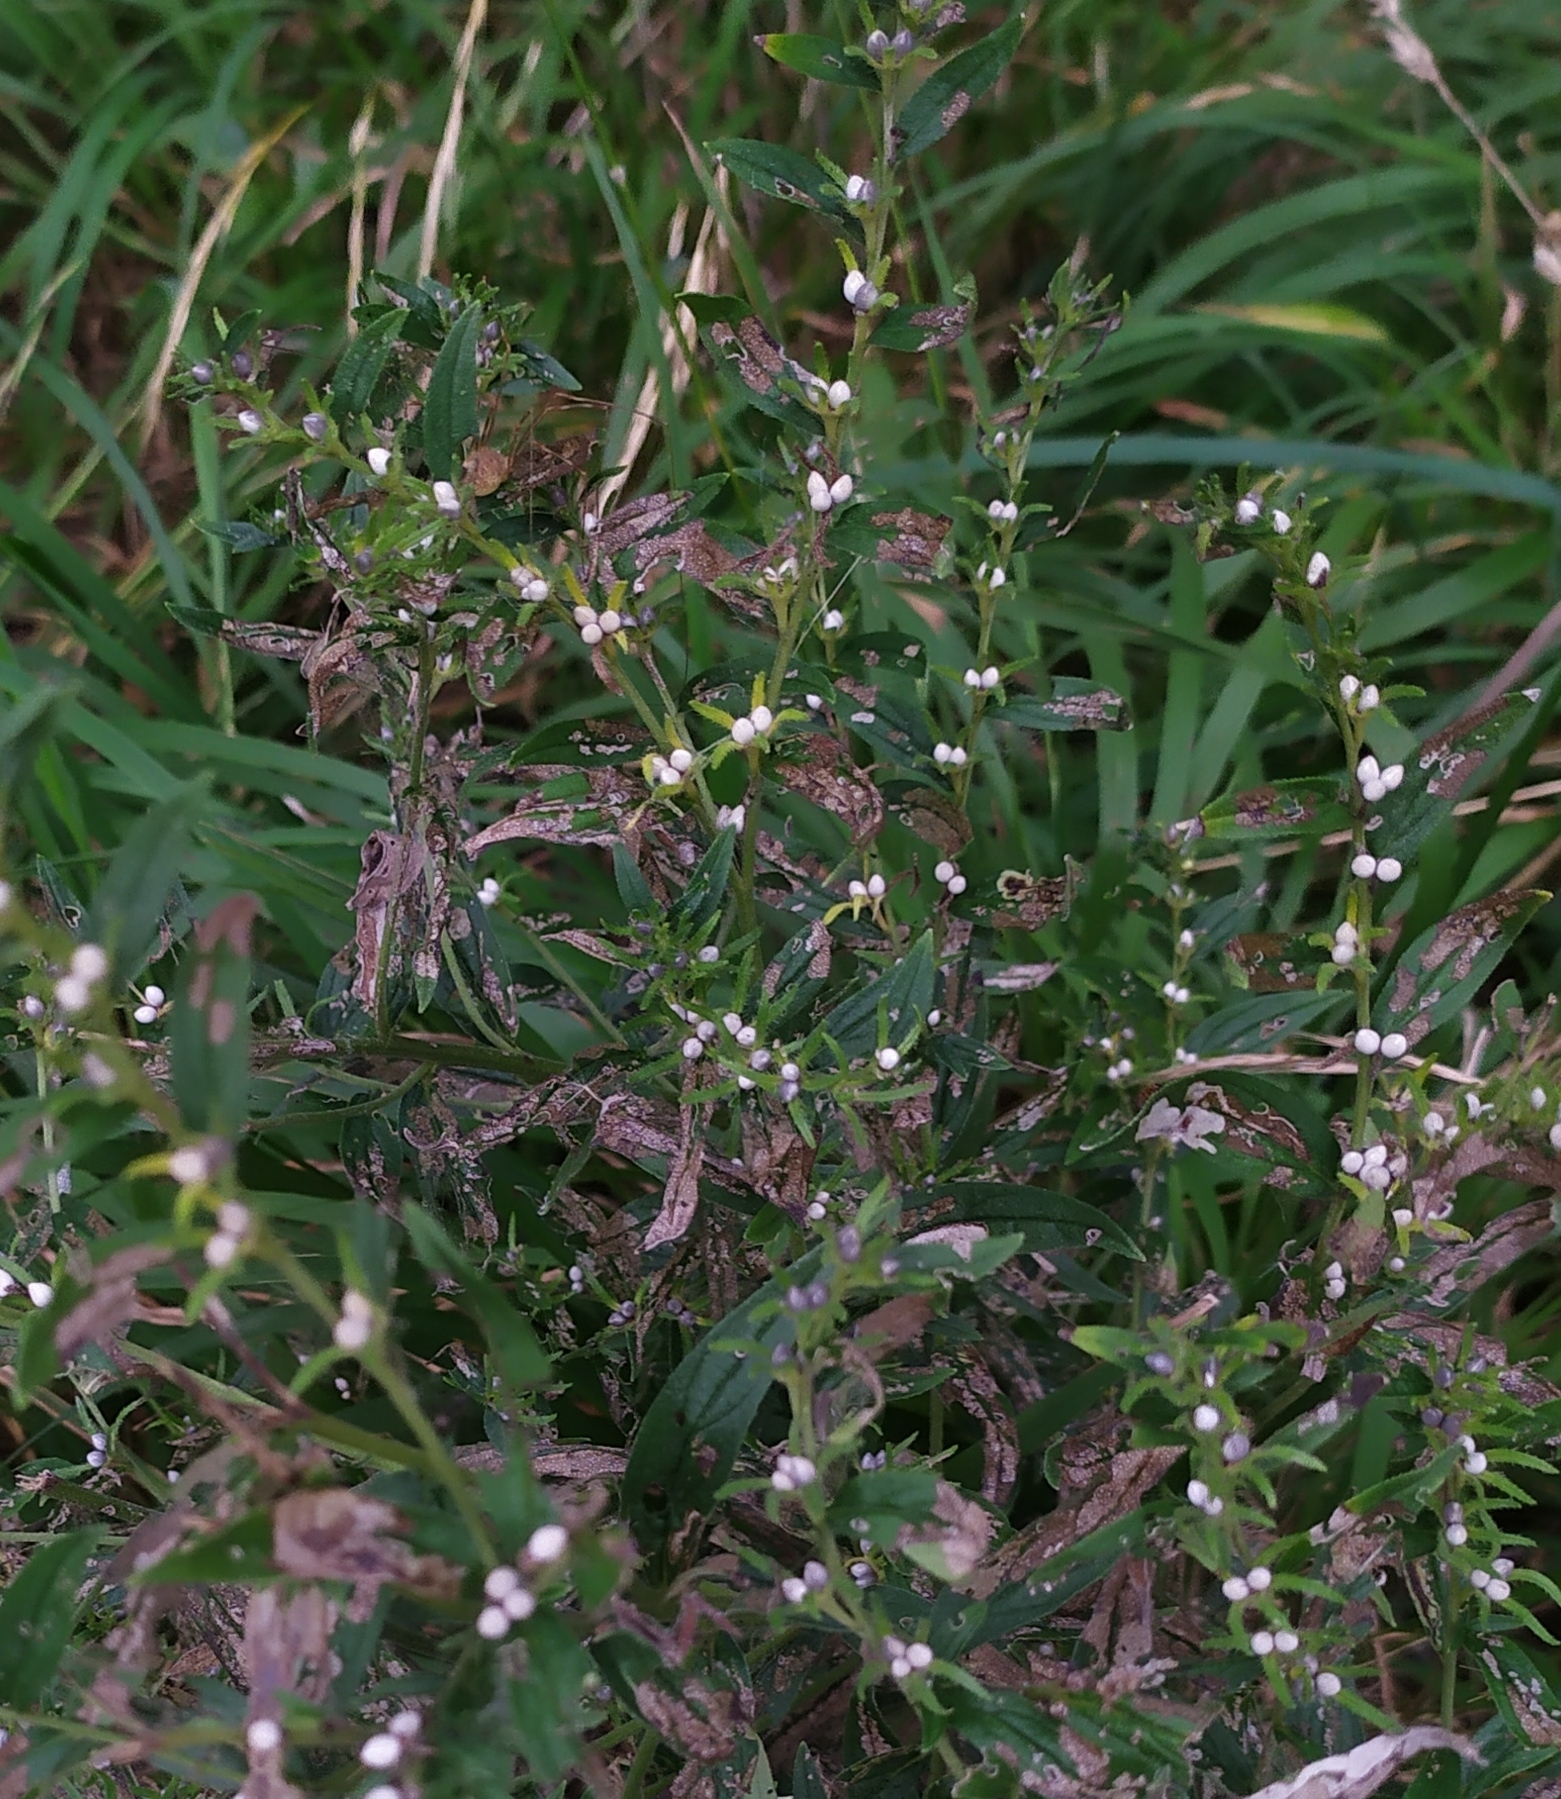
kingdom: Plantae
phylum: Tracheophyta
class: Magnoliopsida
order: Boraginales
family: Boraginaceae
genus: Lithospermum
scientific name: Lithospermum officinale
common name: Common gromwell
